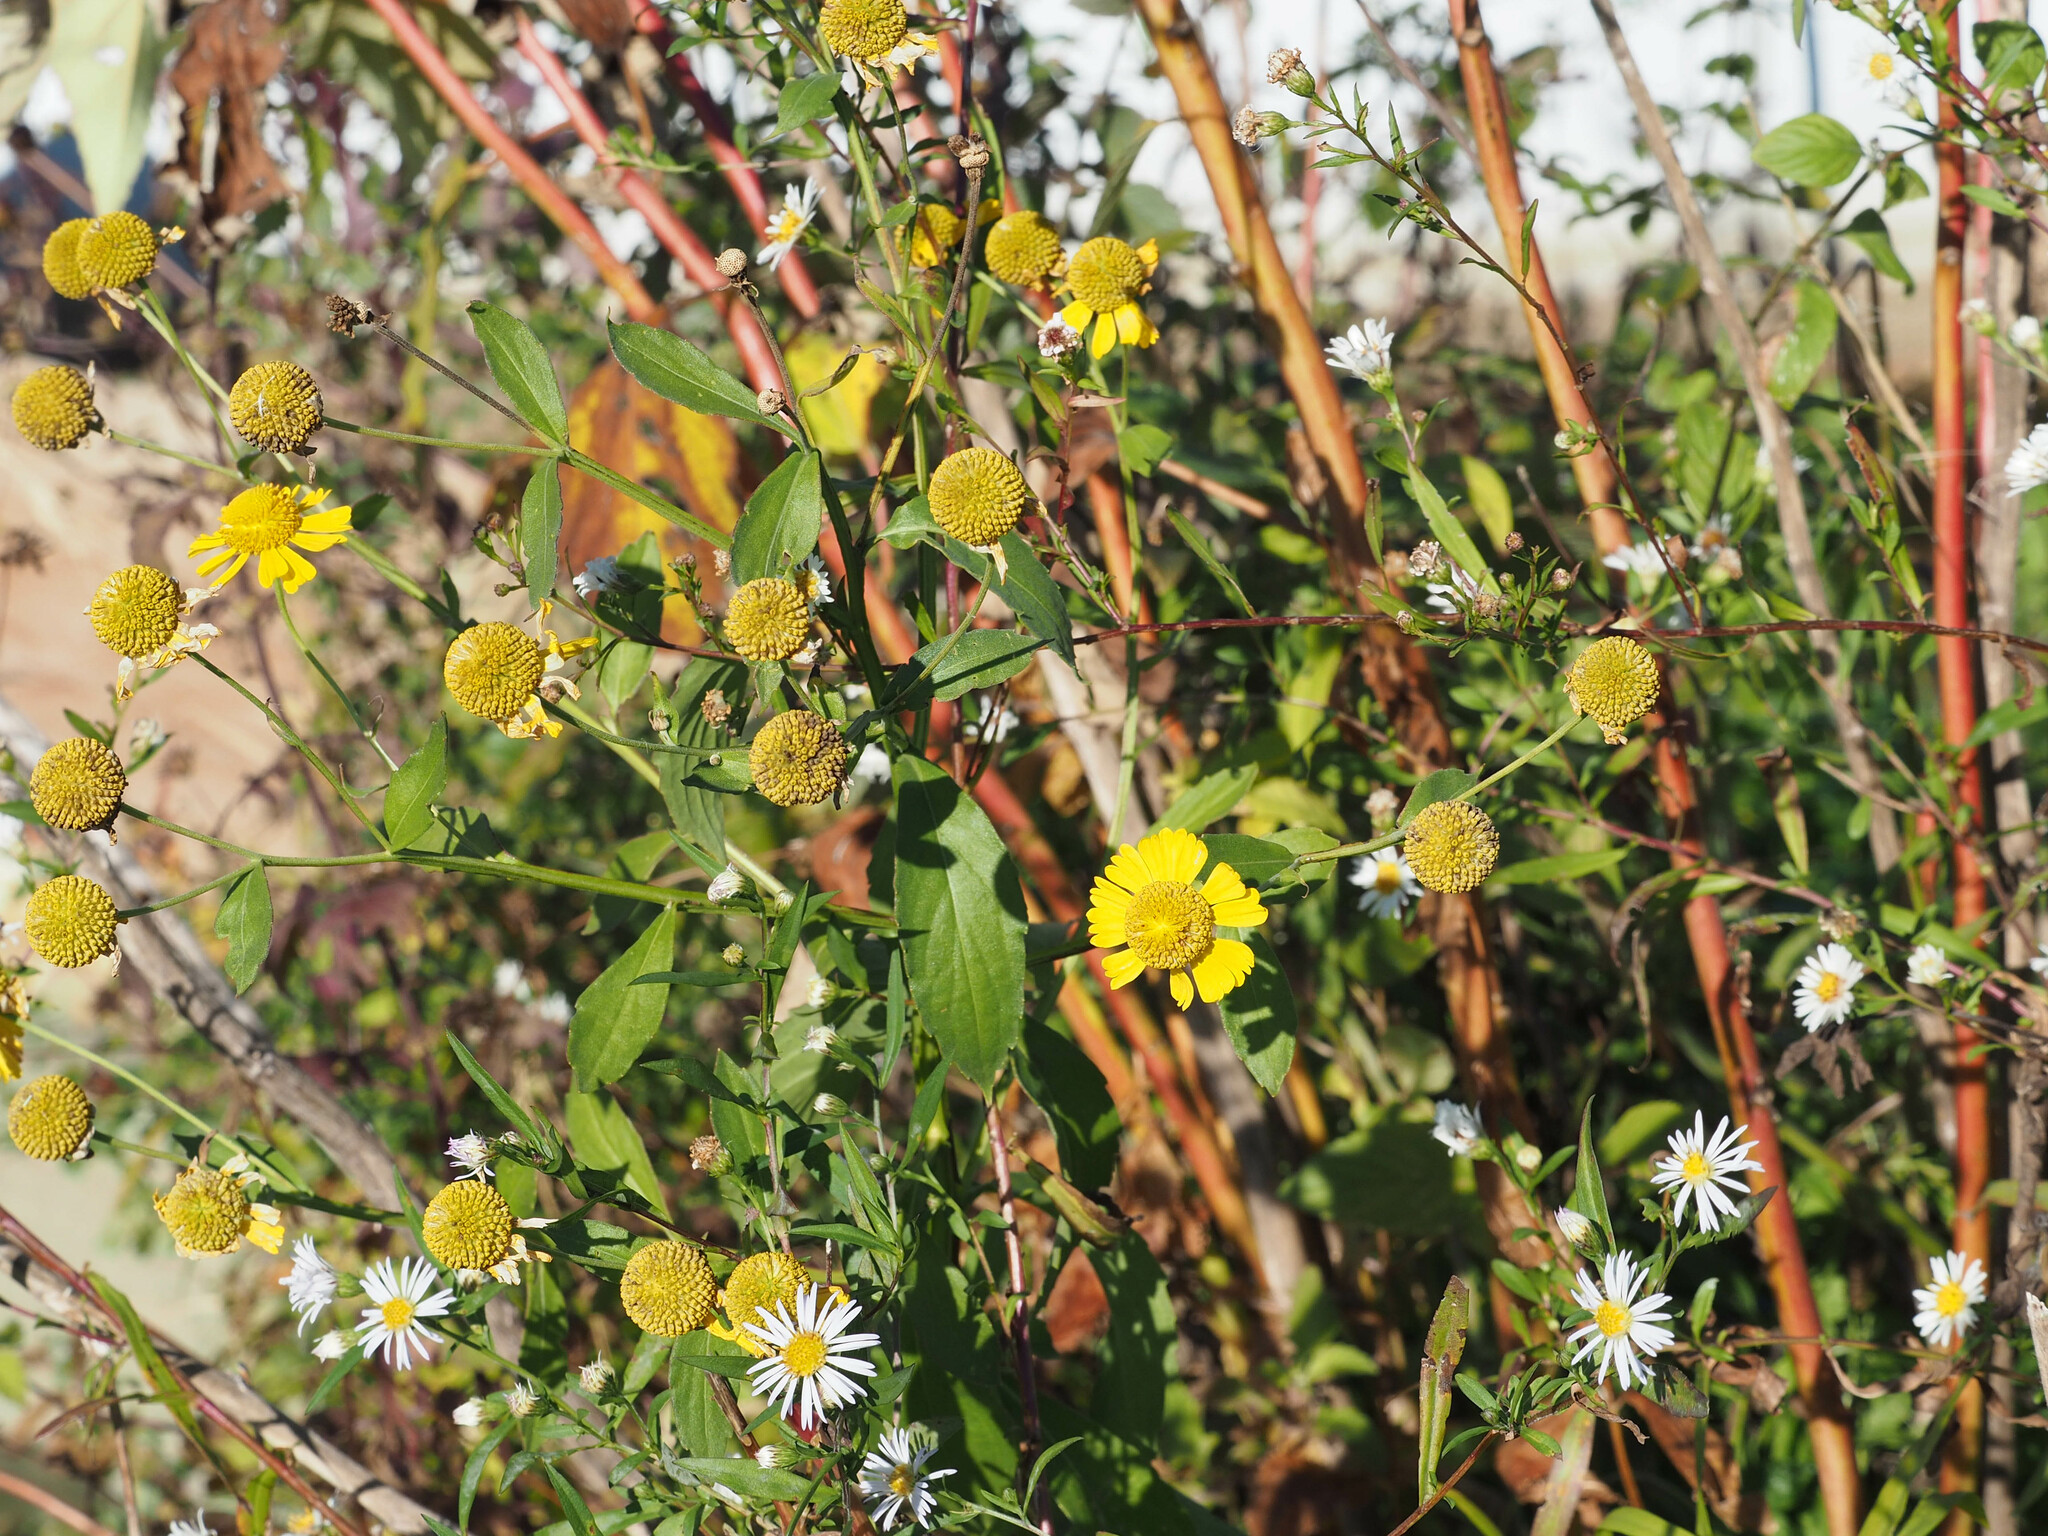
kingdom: Plantae
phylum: Tracheophyta
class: Magnoliopsida
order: Asterales
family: Asteraceae
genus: Helenium
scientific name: Helenium autumnale
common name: Sneezeweed
